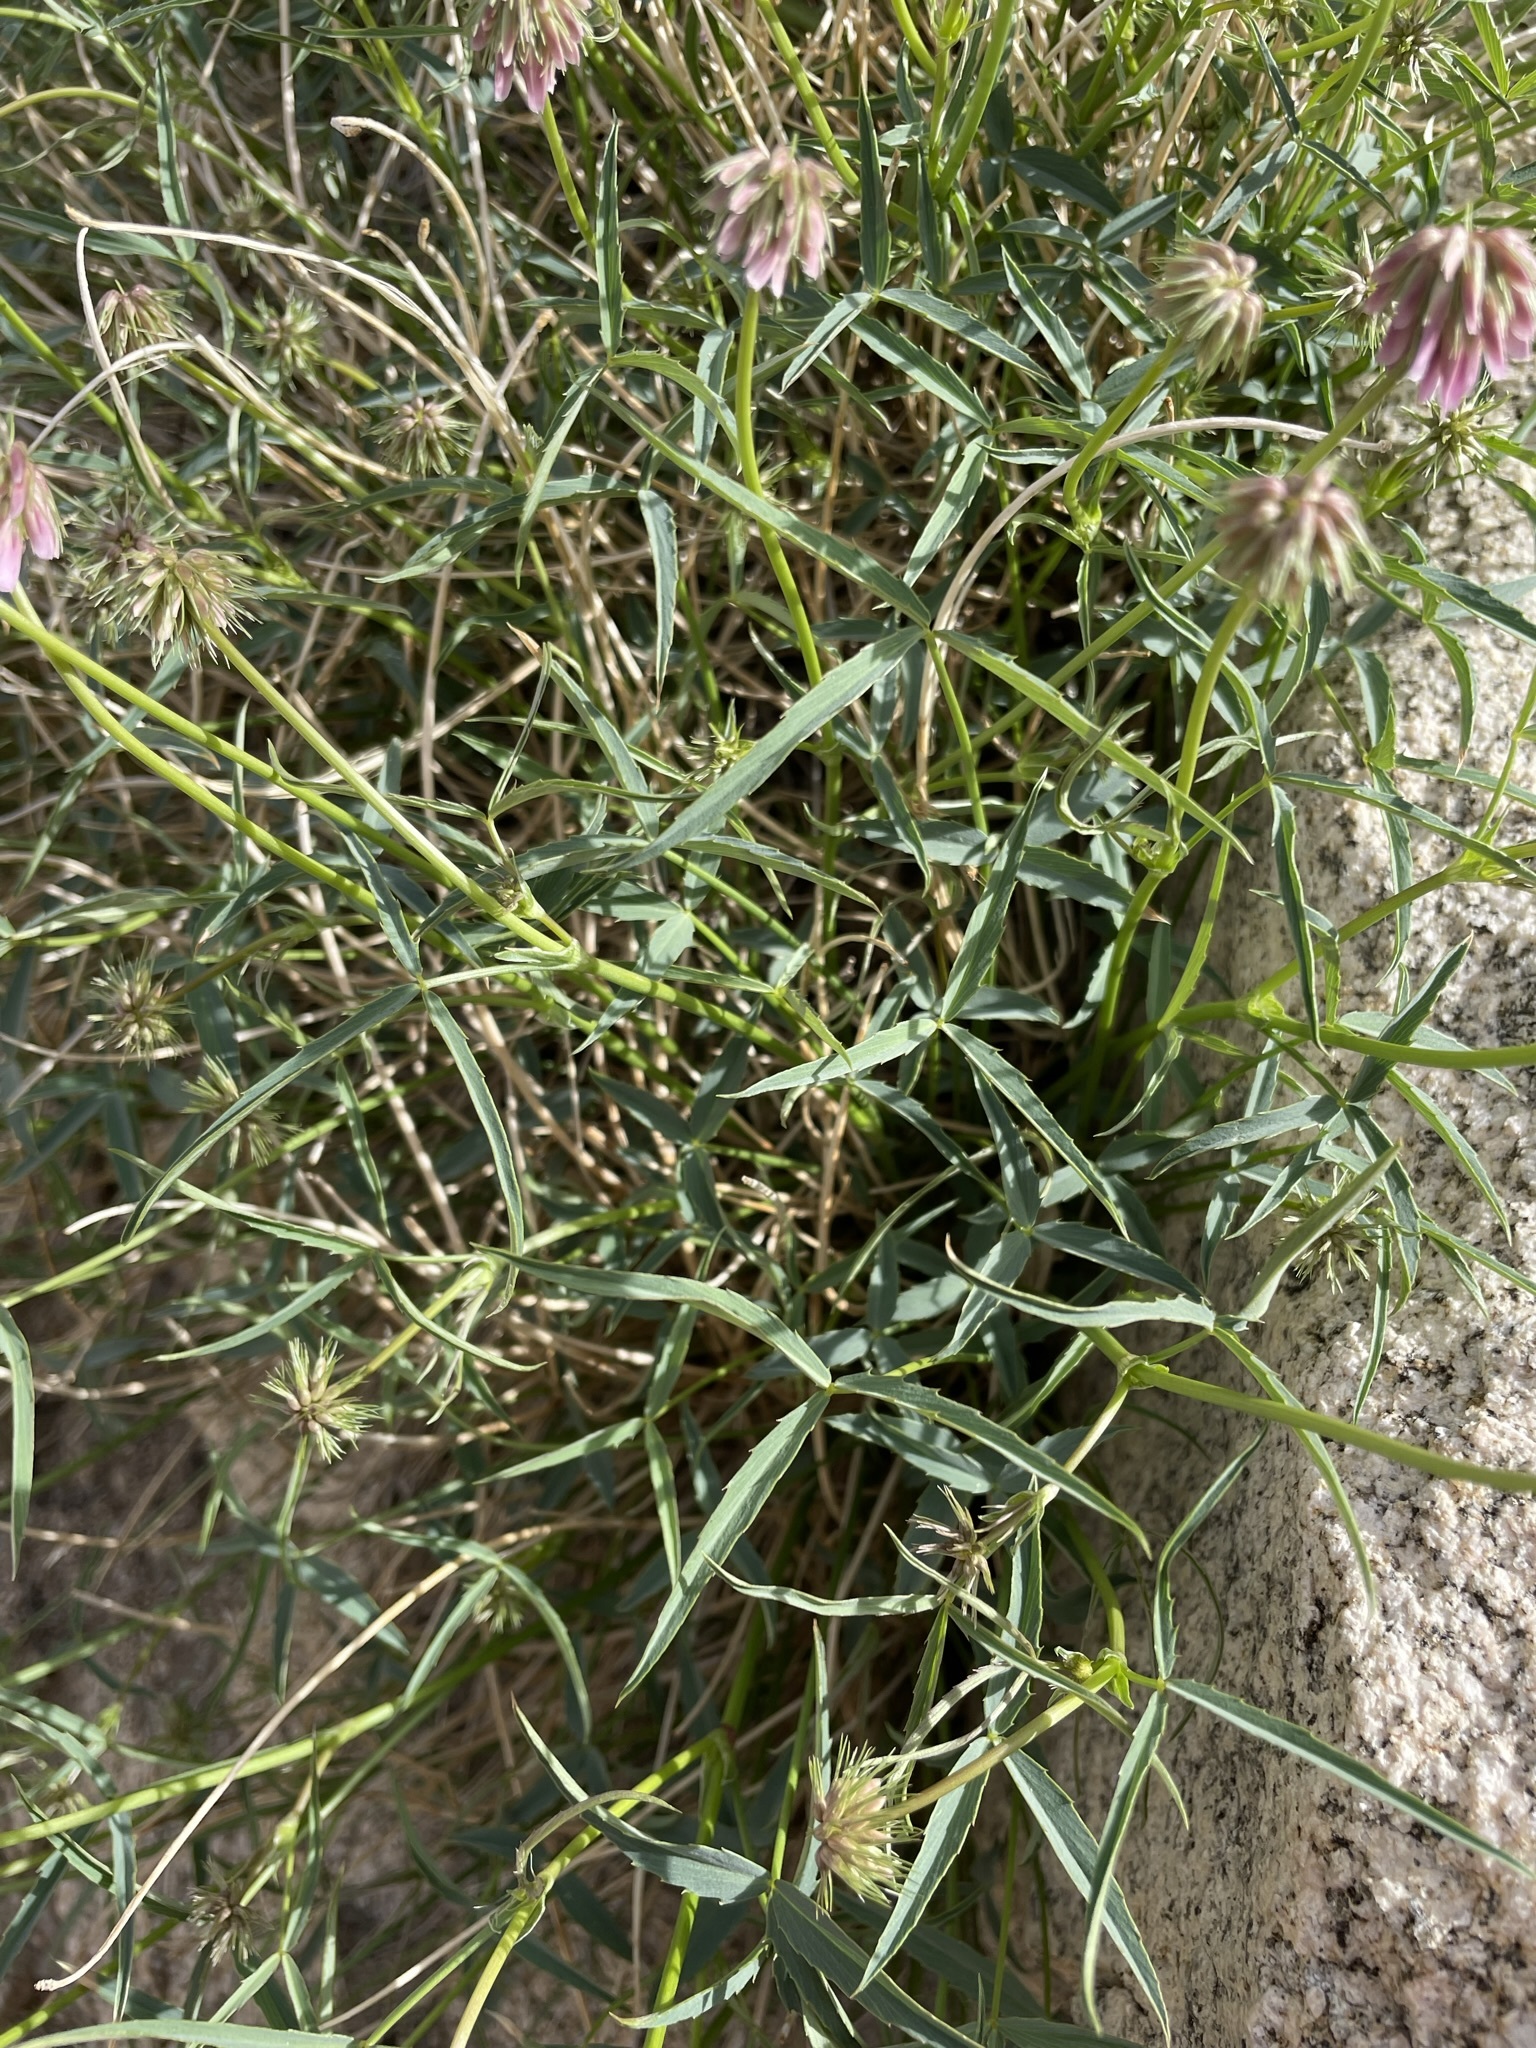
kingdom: Plantae
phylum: Tracheophyta
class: Magnoliopsida
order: Fabales
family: Fabaceae
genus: Trifolium
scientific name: Trifolium dedeckerae
